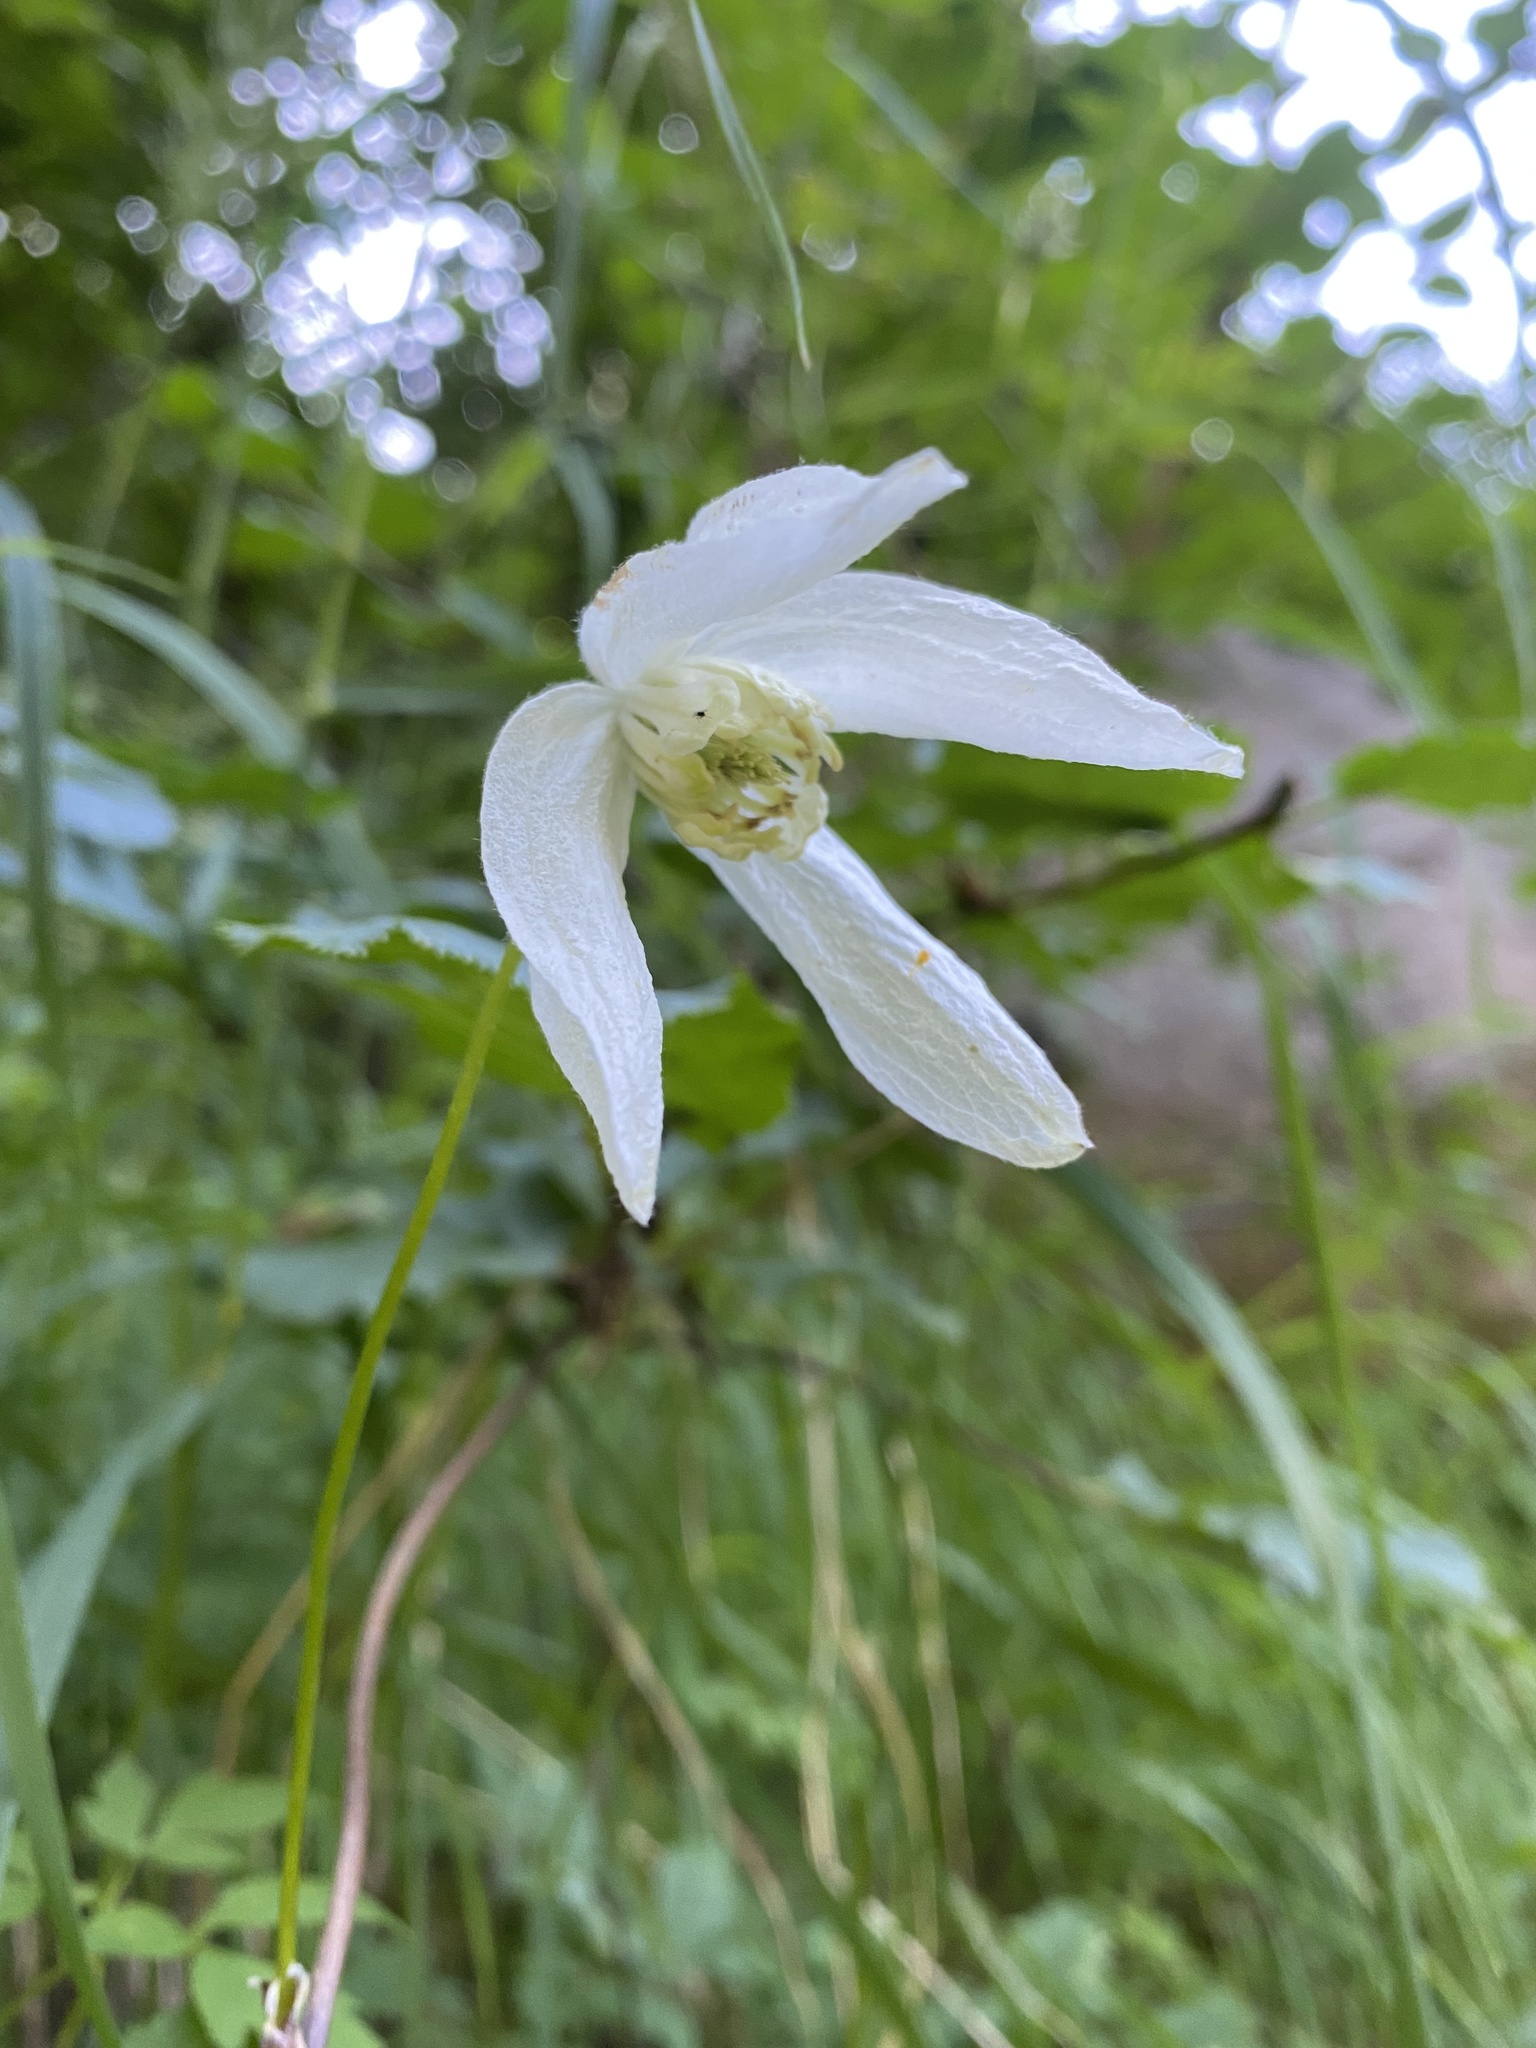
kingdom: Plantae
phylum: Tracheophyta
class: Magnoliopsida
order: Ranunculales
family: Ranunculaceae
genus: Clematis
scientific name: Clematis sibirica
